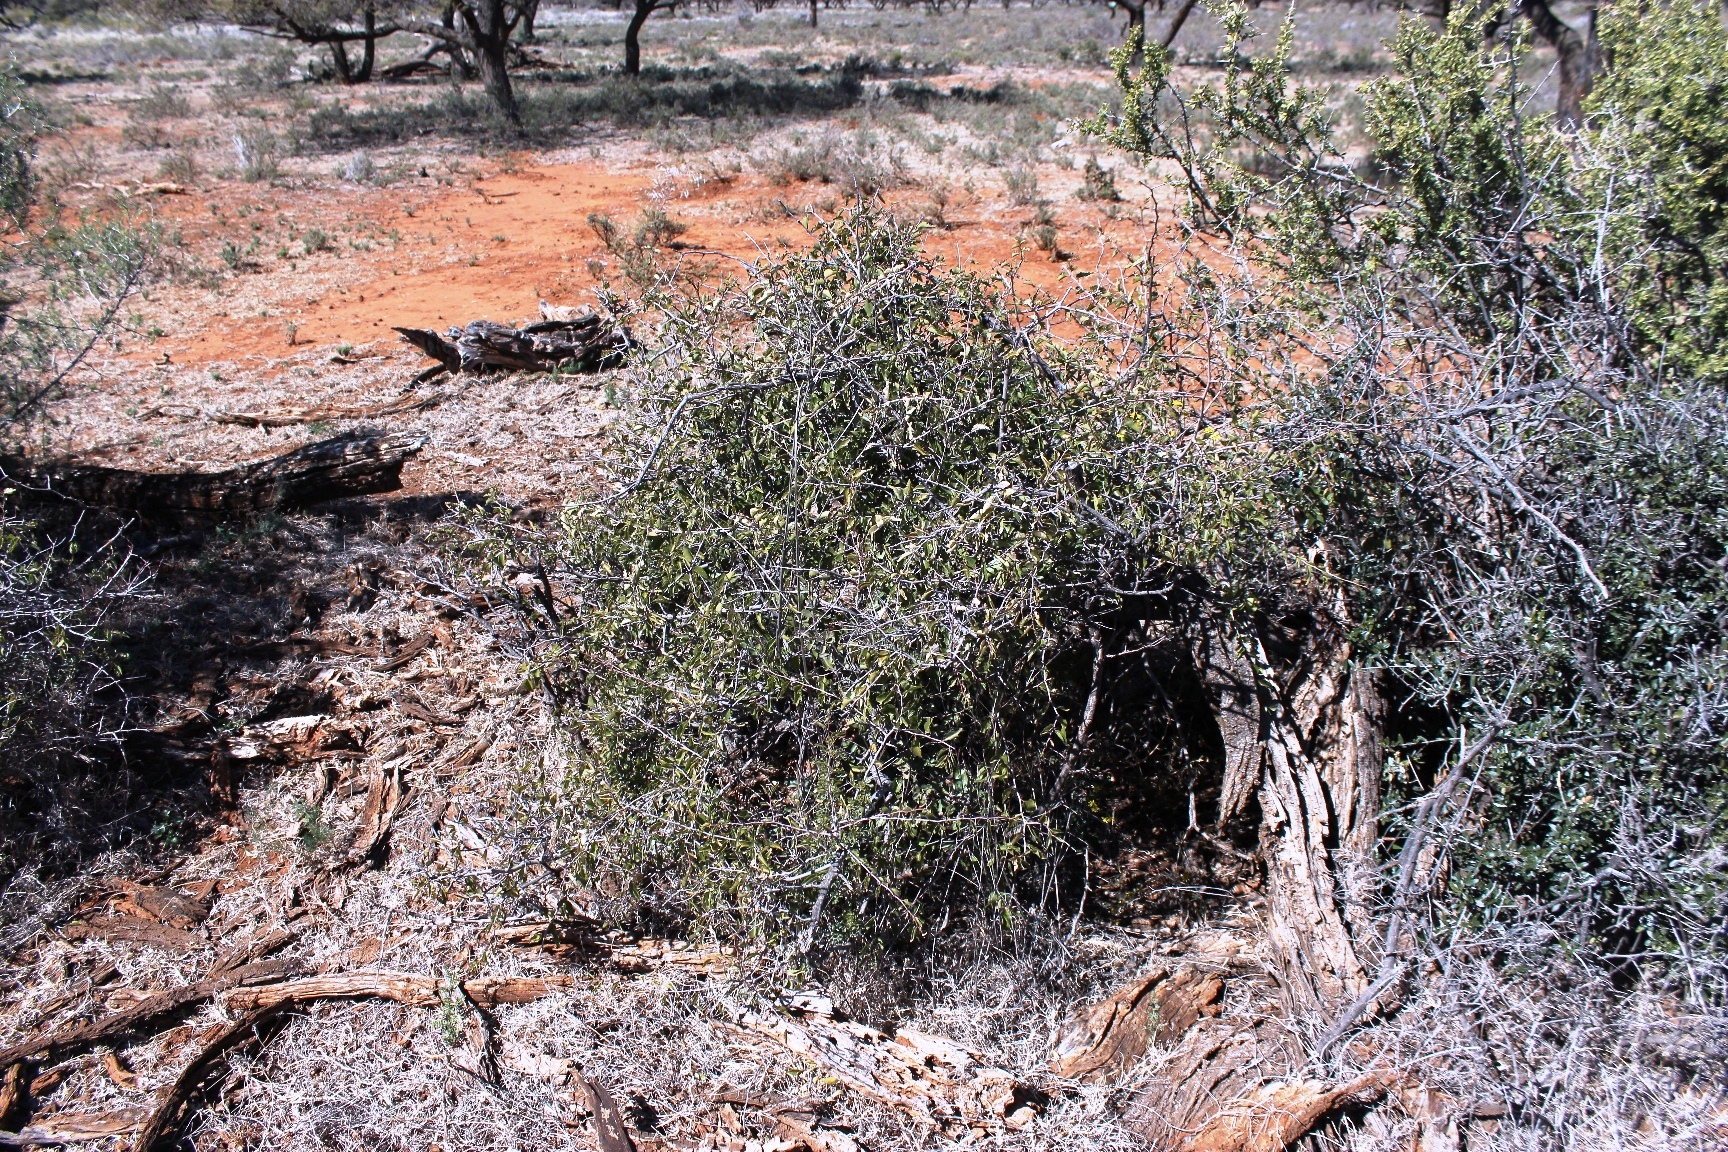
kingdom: Plantae
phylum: Tracheophyta
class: Magnoliopsida
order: Rosales
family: Rhamnaceae
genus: Ziziphus
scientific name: Ziziphus mucronata
